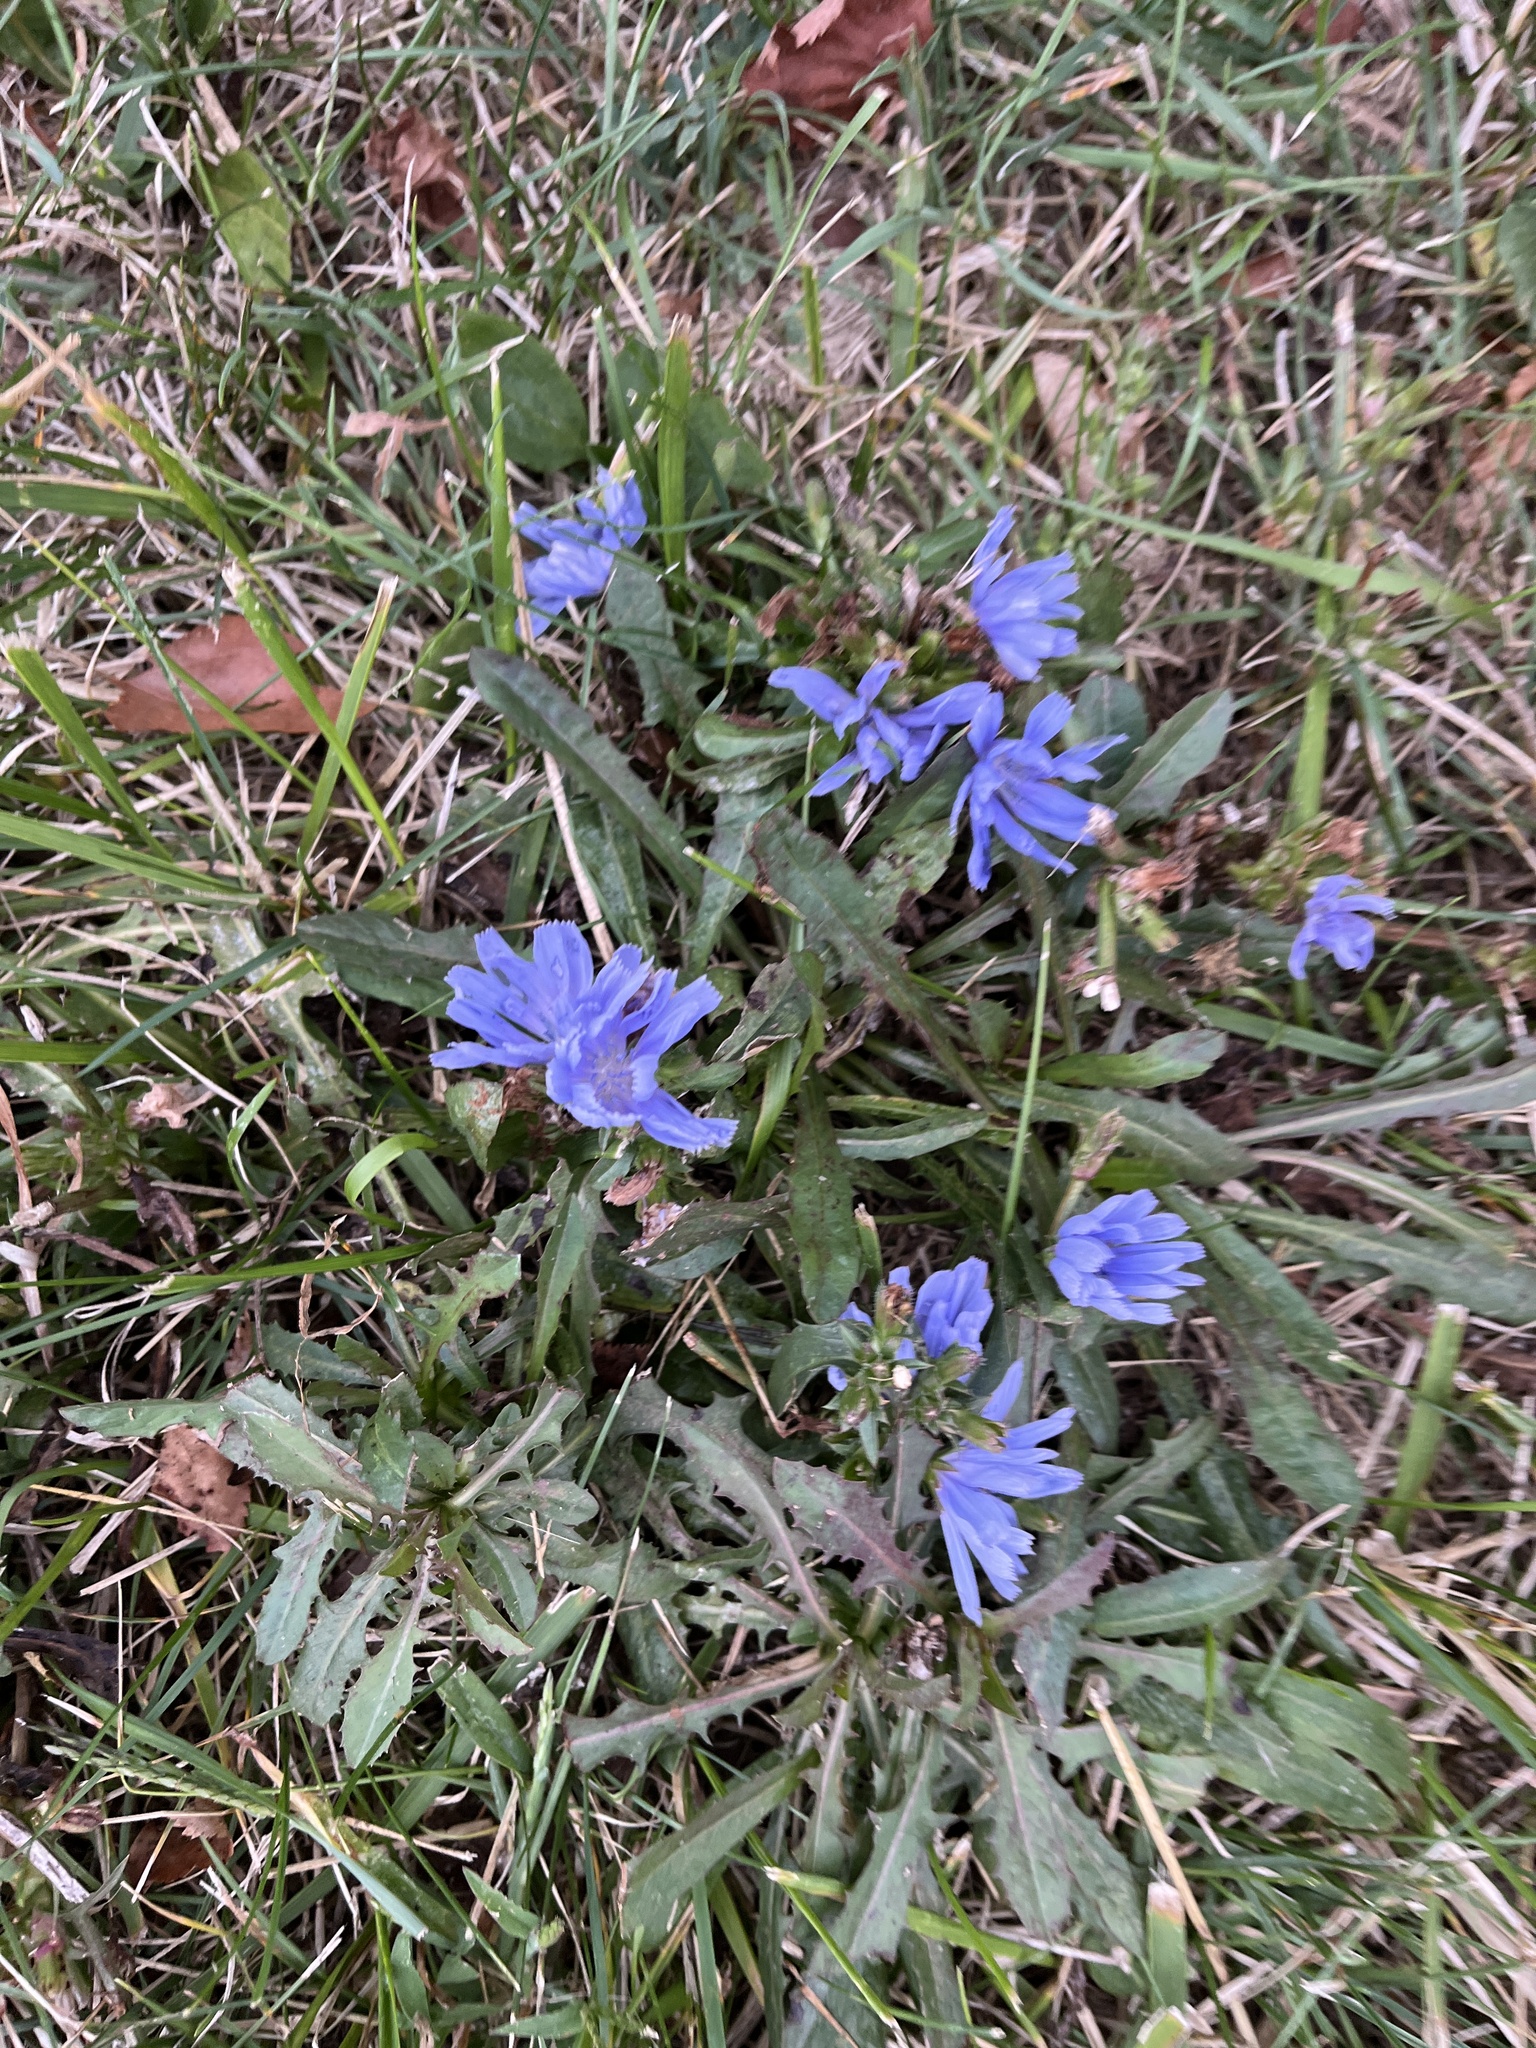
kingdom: Plantae
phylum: Tracheophyta
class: Magnoliopsida
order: Asterales
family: Asteraceae
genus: Cichorium
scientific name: Cichorium intybus
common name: Chicory
